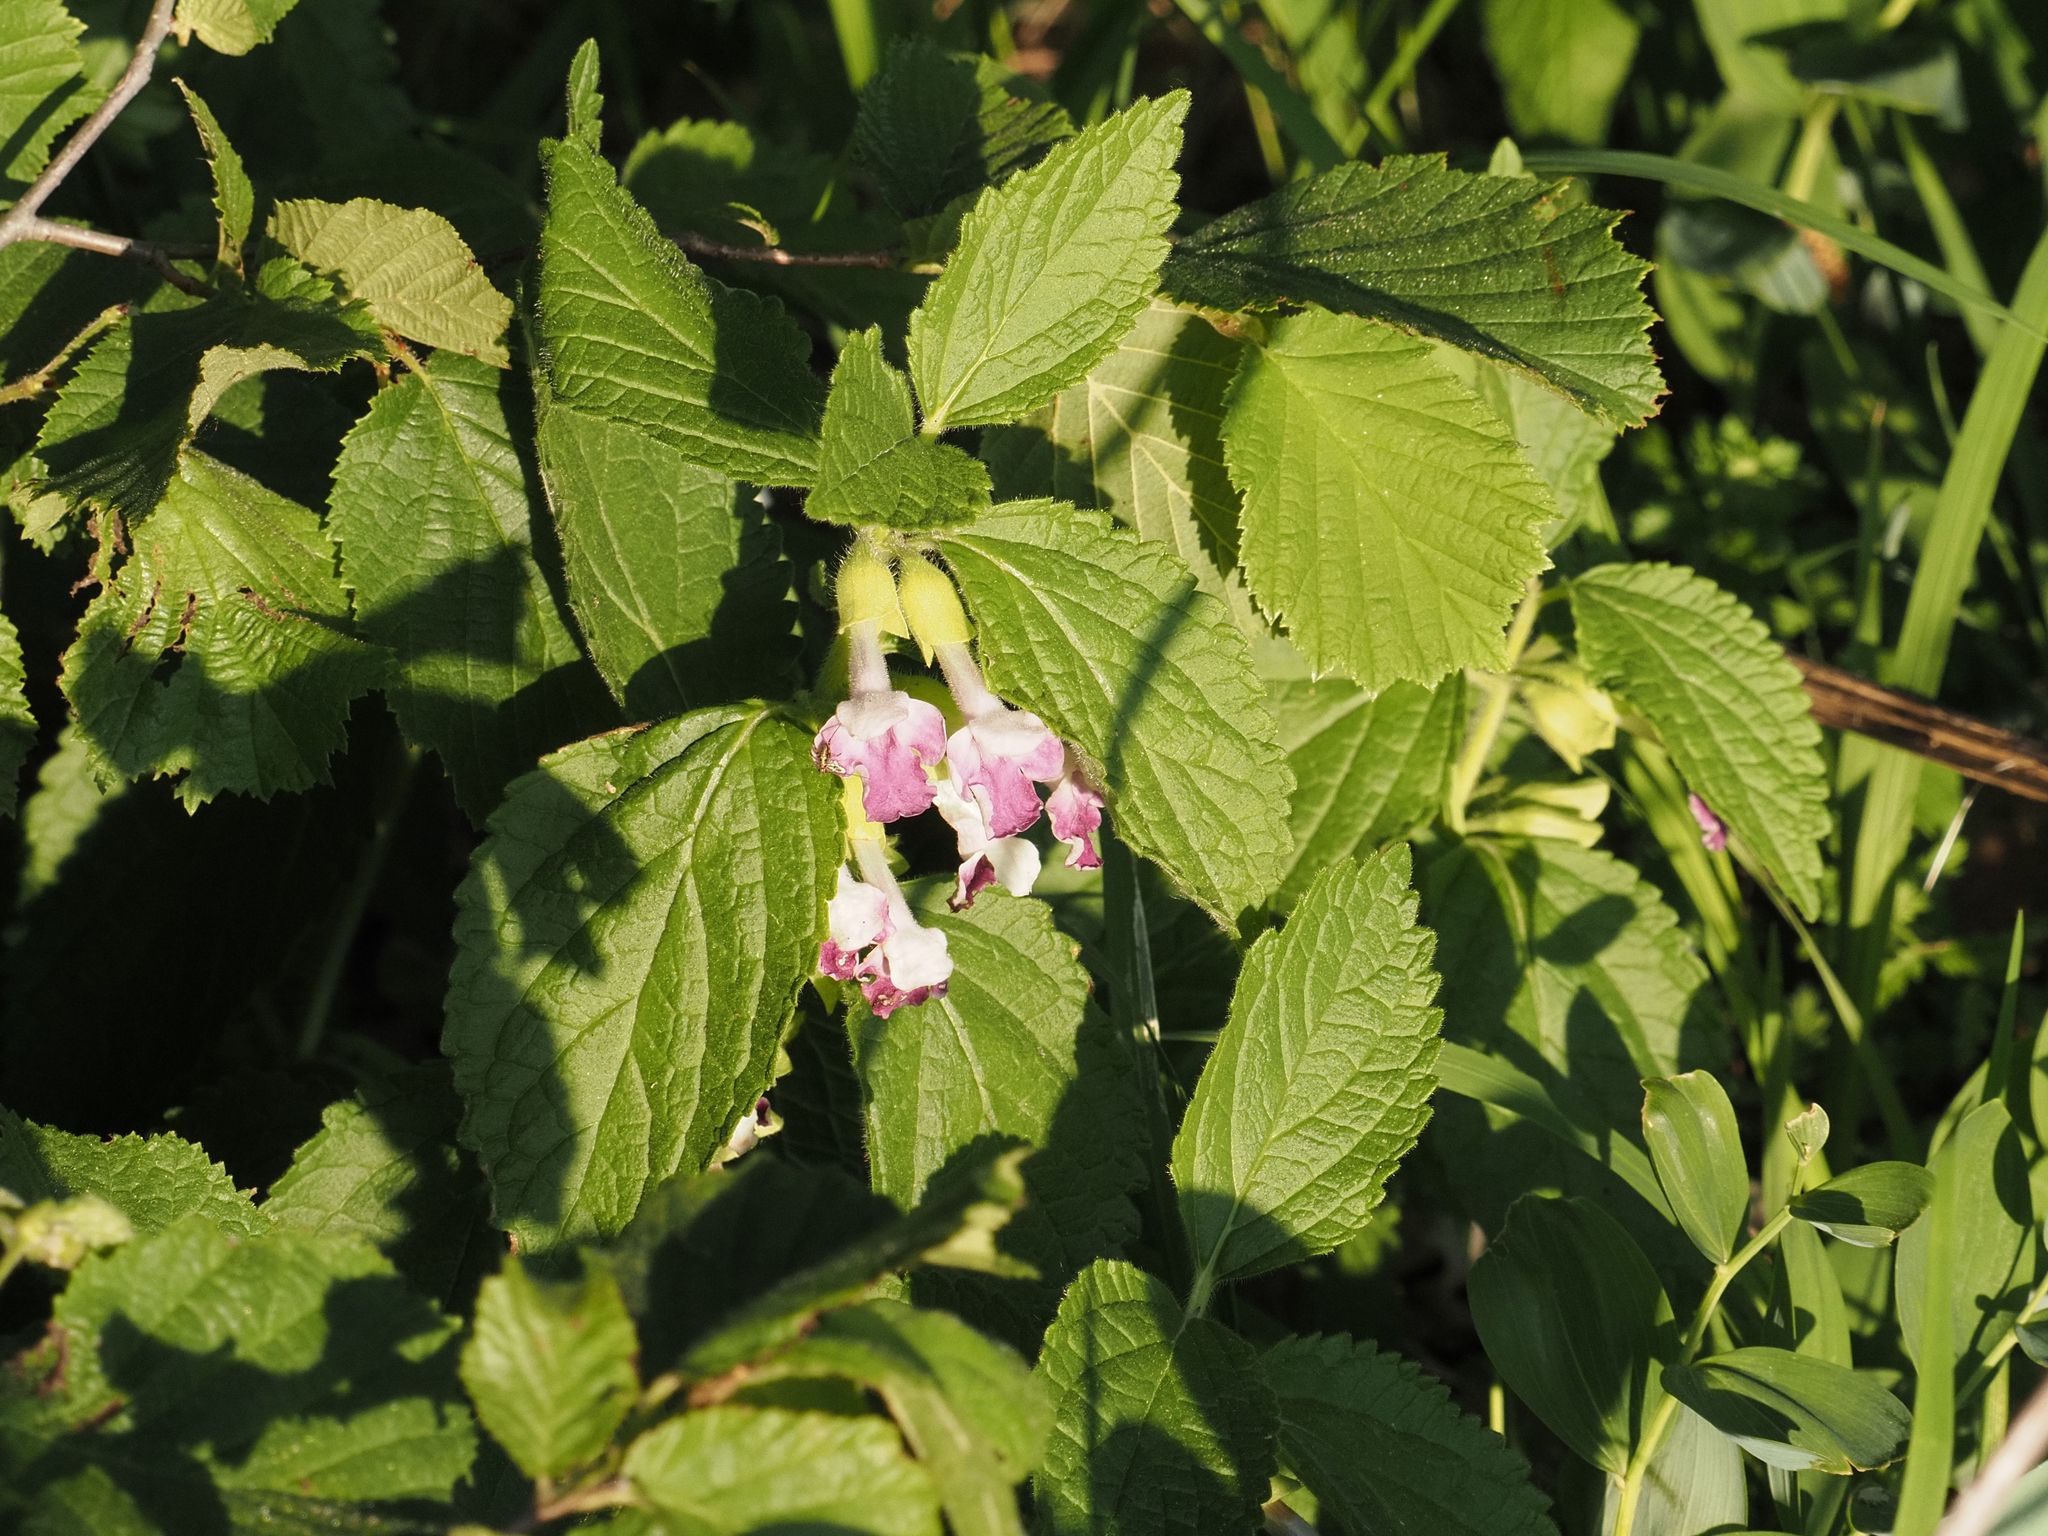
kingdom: Plantae
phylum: Tracheophyta
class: Magnoliopsida
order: Lamiales
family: Lamiaceae
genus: Melittis
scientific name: Melittis melissophyllum
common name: Bastard balm
